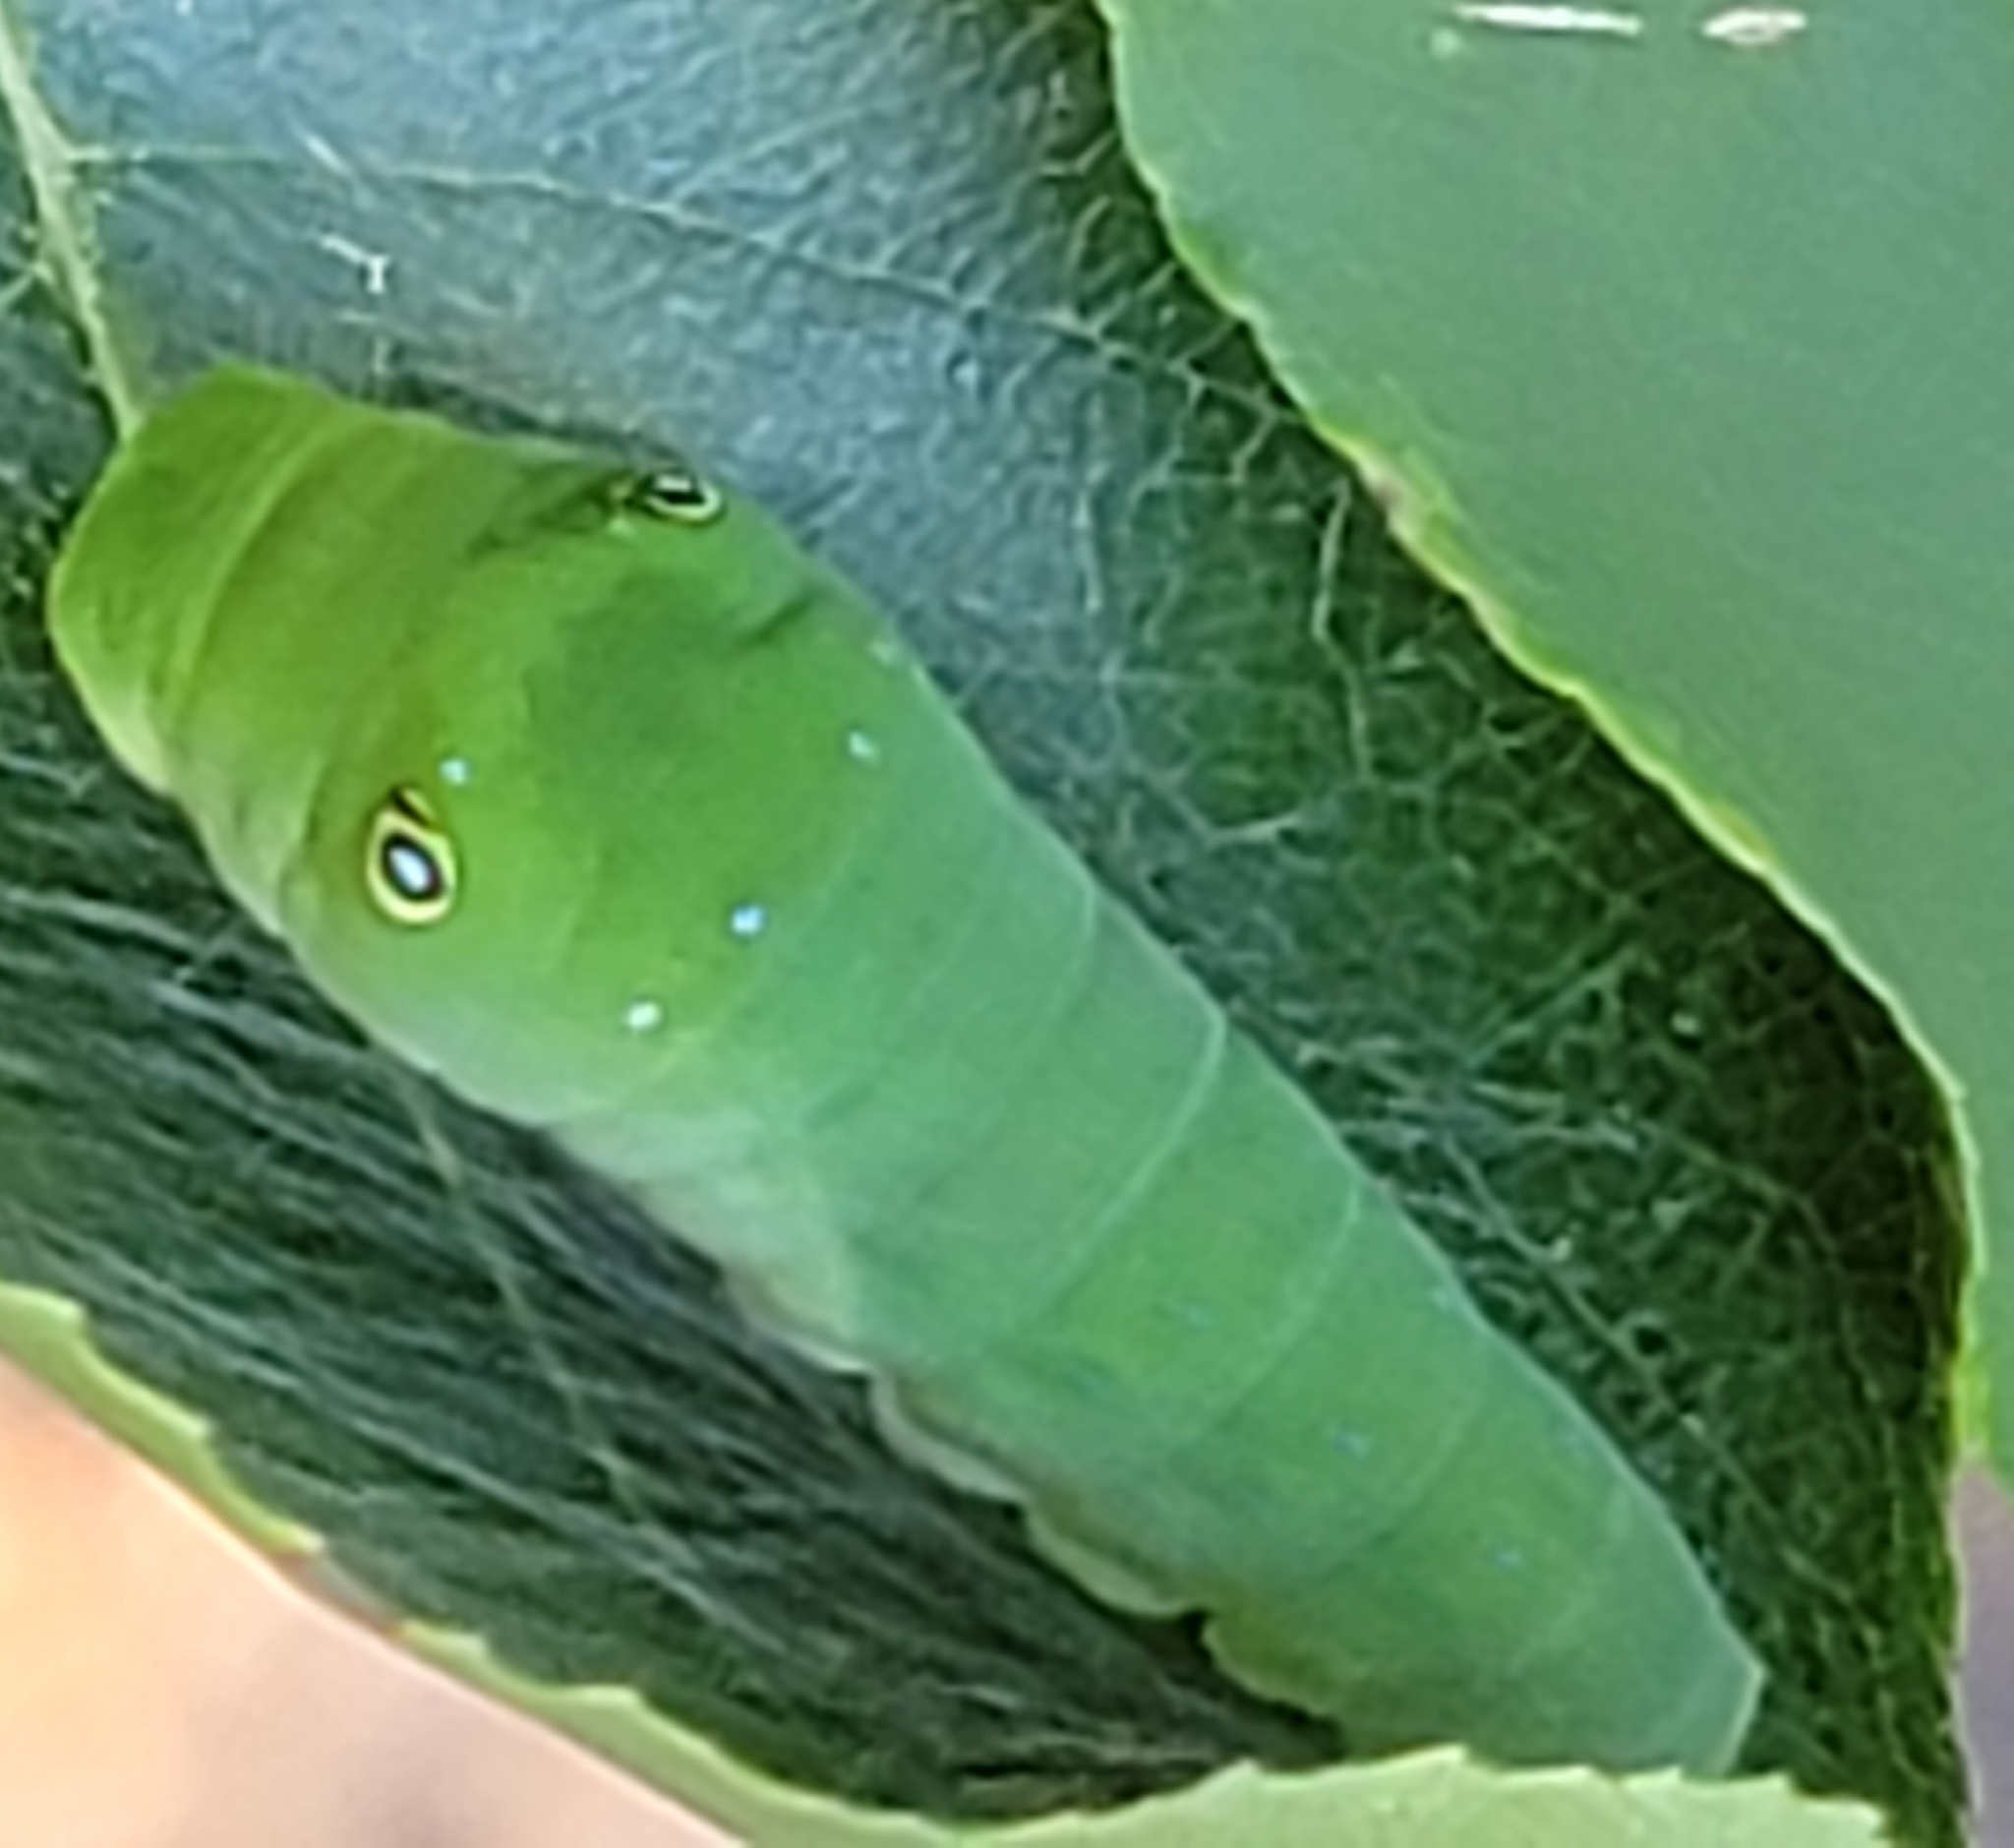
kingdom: Animalia
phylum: Arthropoda
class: Insecta
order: Lepidoptera
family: Papilionidae
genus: Papilio
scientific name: Papilio glaucus
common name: Tiger swallowtail
